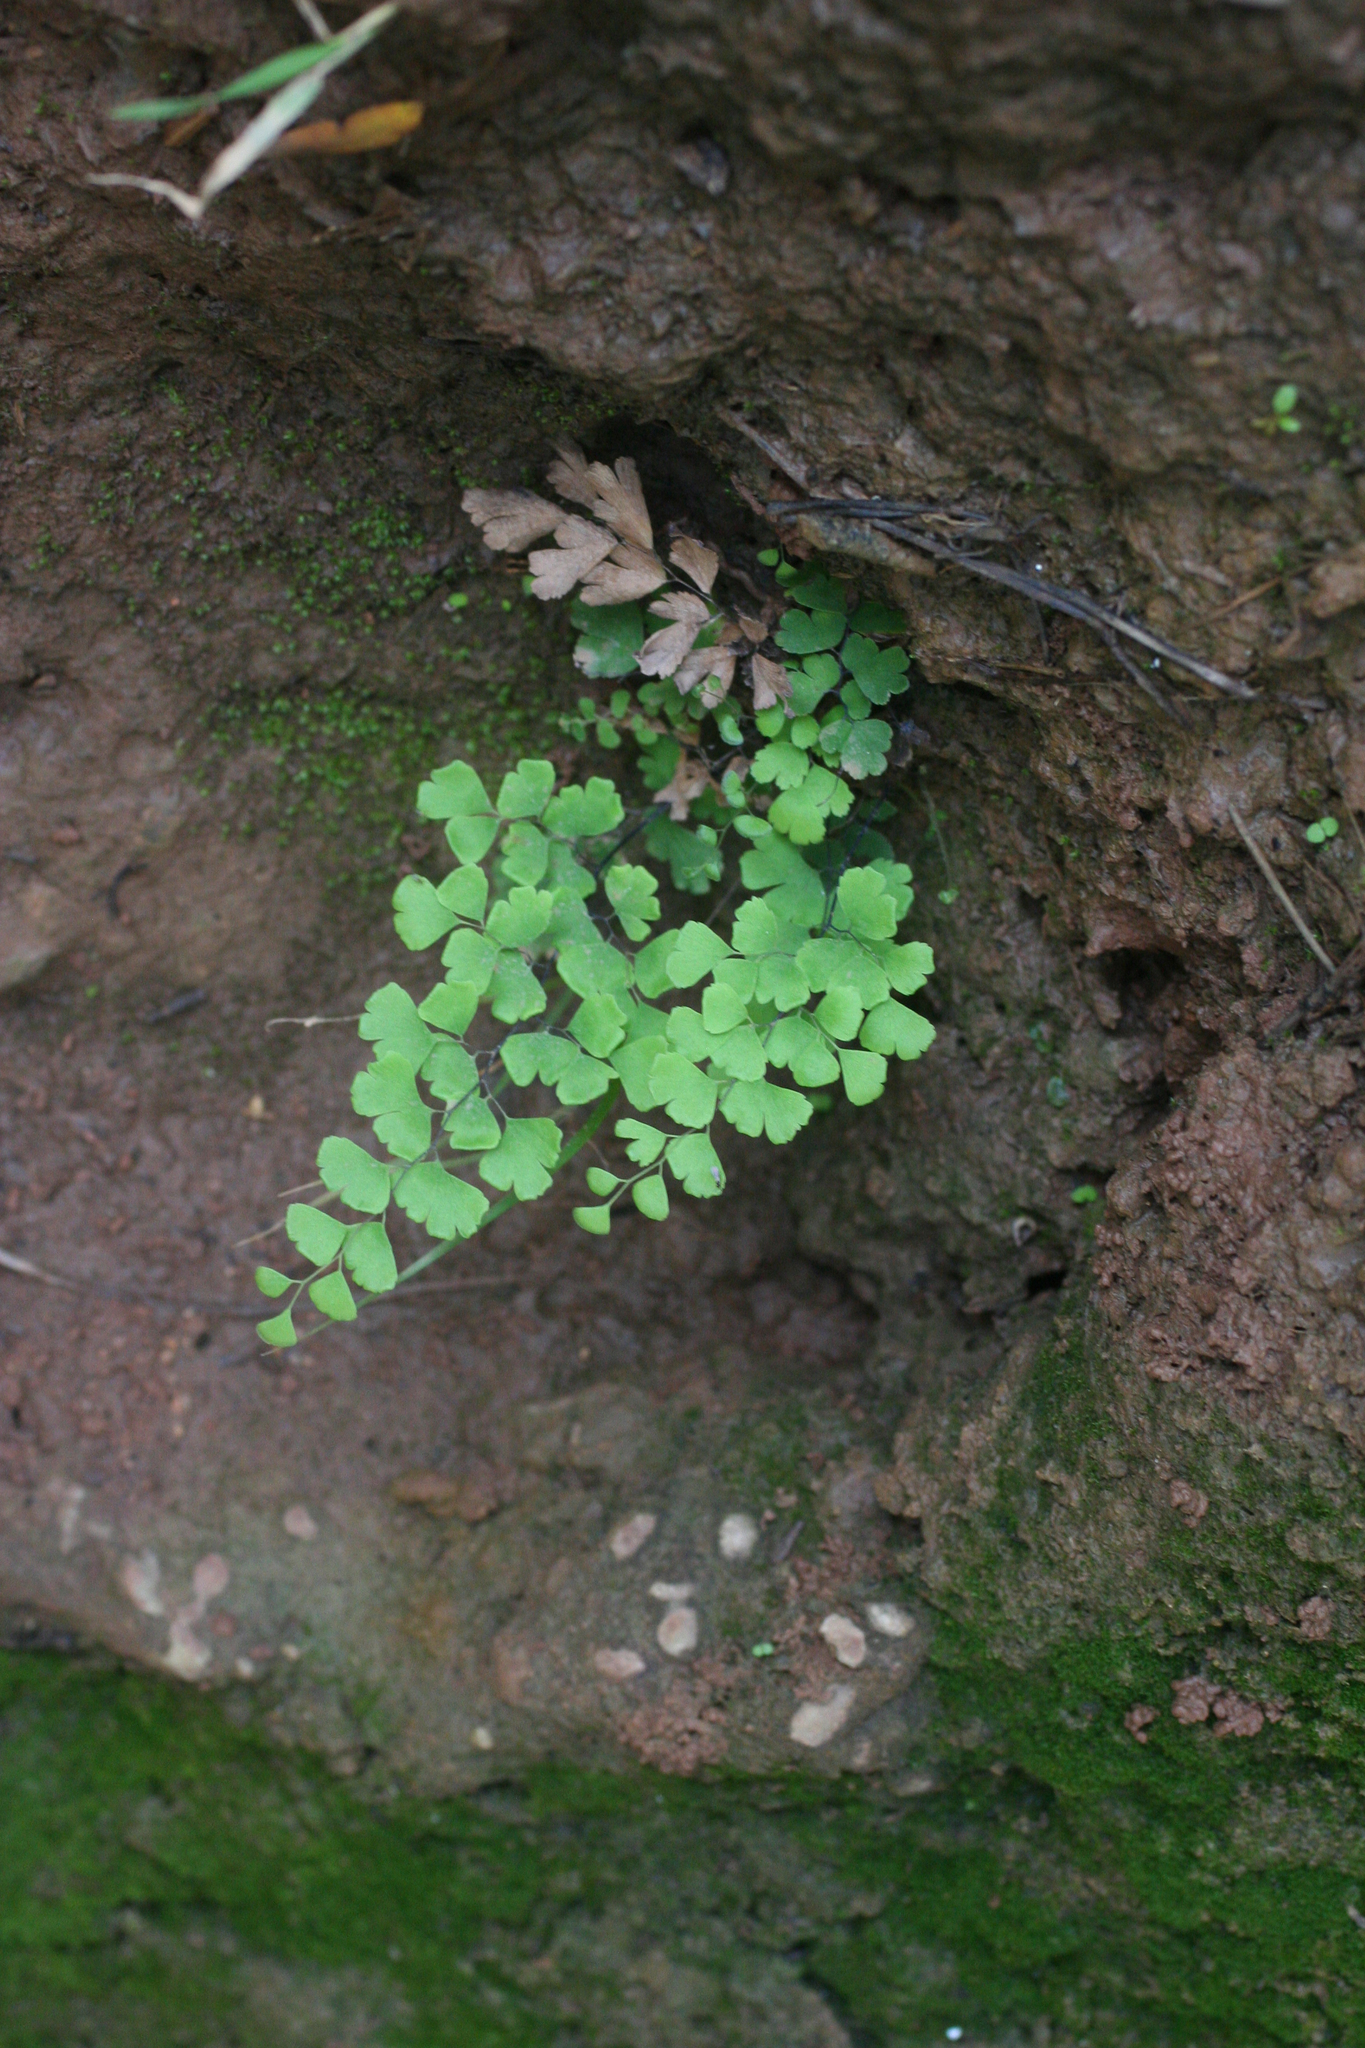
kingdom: Plantae
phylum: Tracheophyta
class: Polypodiopsida
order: Polypodiales
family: Pteridaceae
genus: Adiantum
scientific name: Adiantum capillus-veneris
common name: Maidenhair fern
